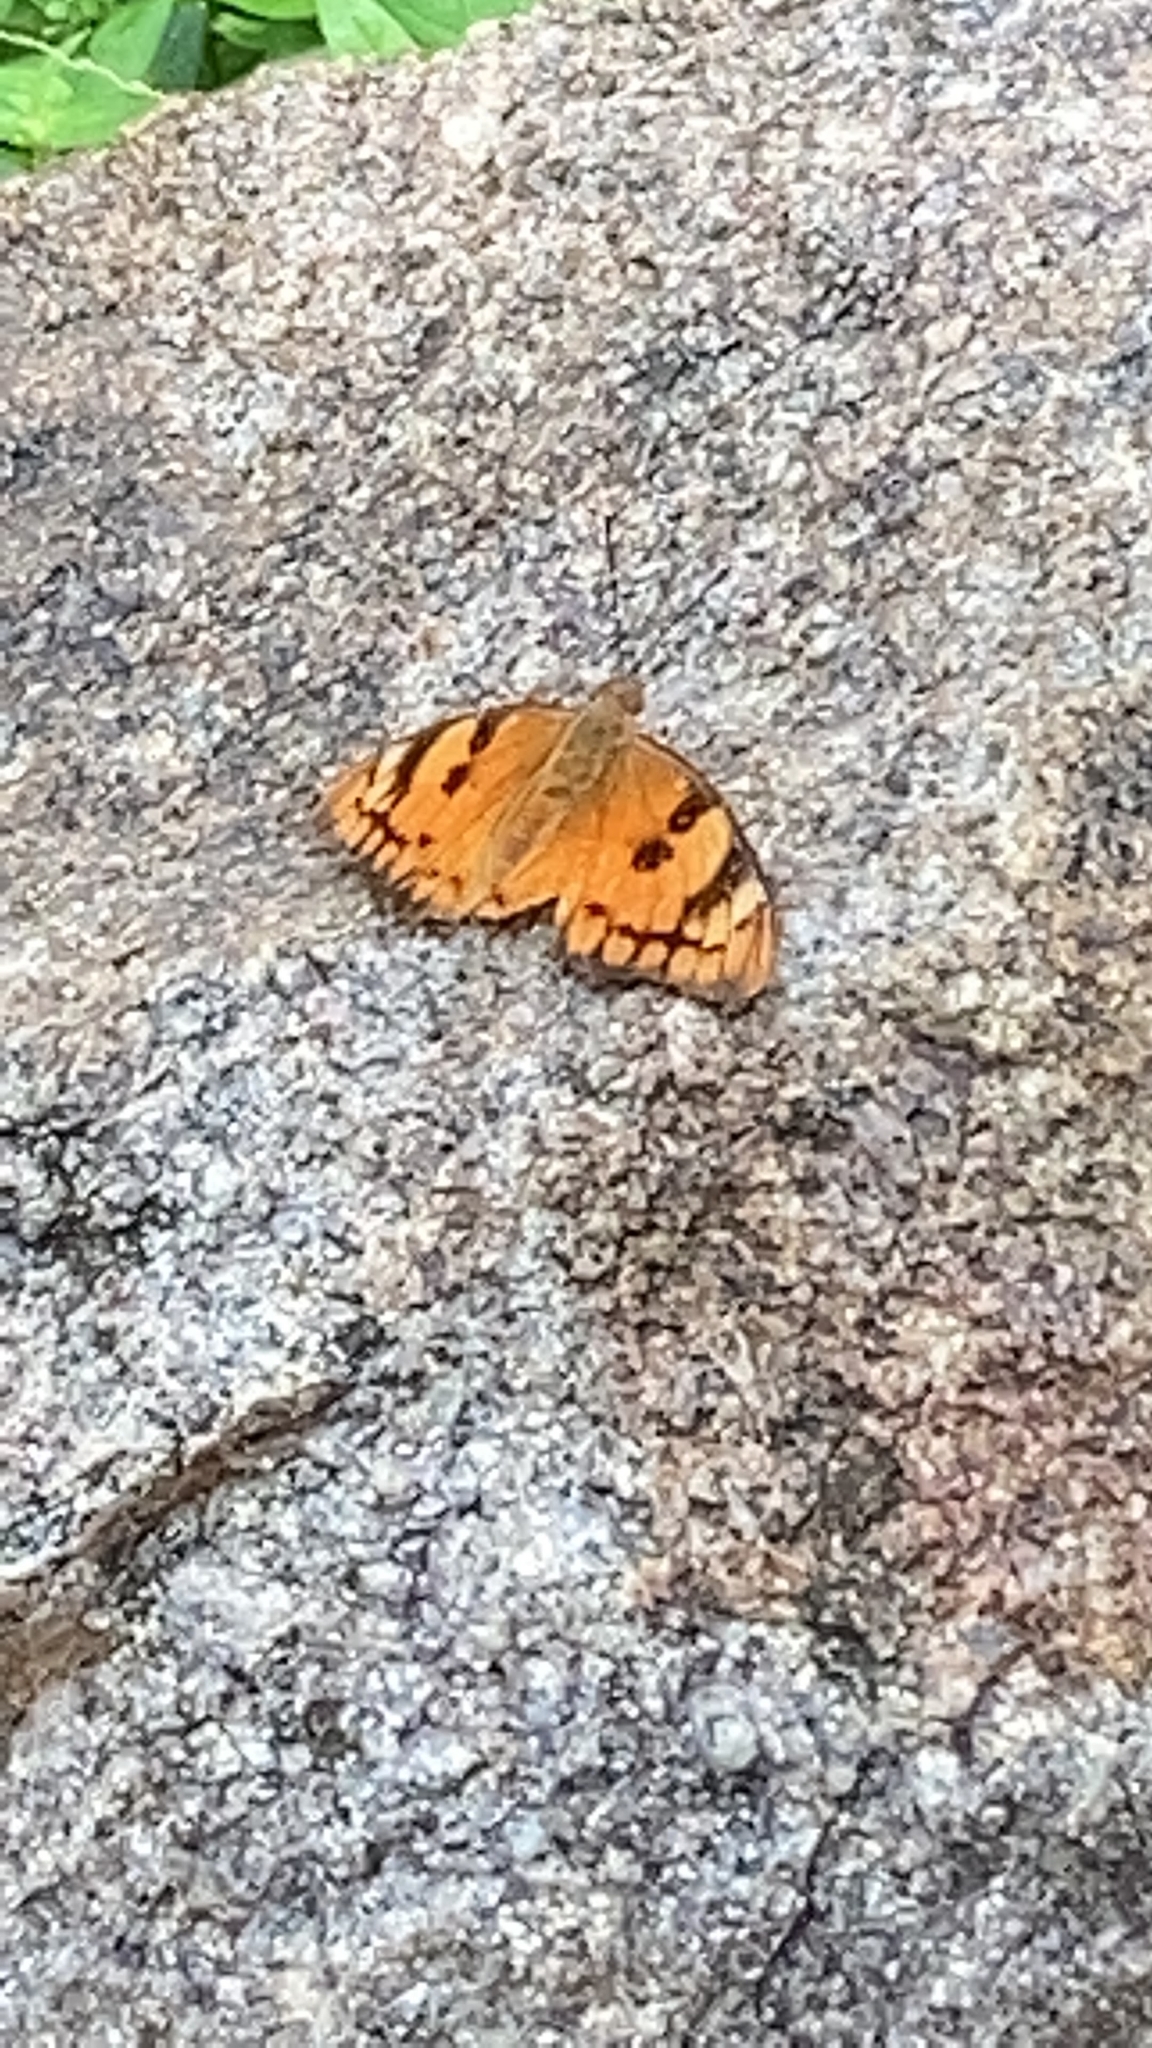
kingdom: Animalia
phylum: Arthropoda
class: Insecta
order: Lepidoptera
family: Nymphalidae
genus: Euthalia
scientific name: Euthalia nais
